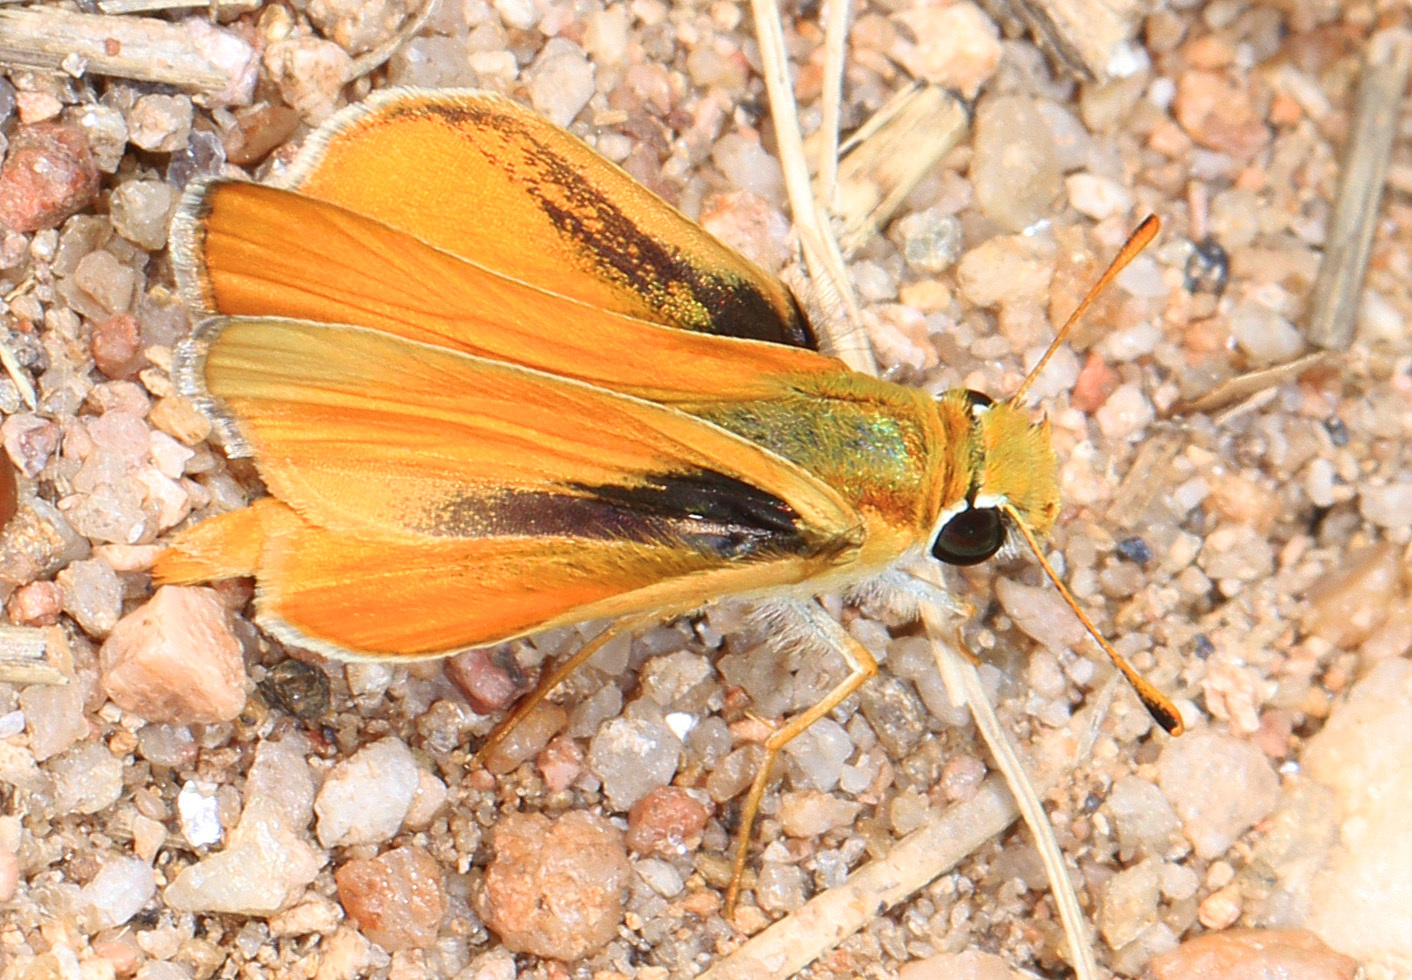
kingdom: Animalia
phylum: Arthropoda
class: Insecta
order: Lepidoptera
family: Hesperiidae
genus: Copaeodes
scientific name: Copaeodes aurantiaca
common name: Orange skipperling
